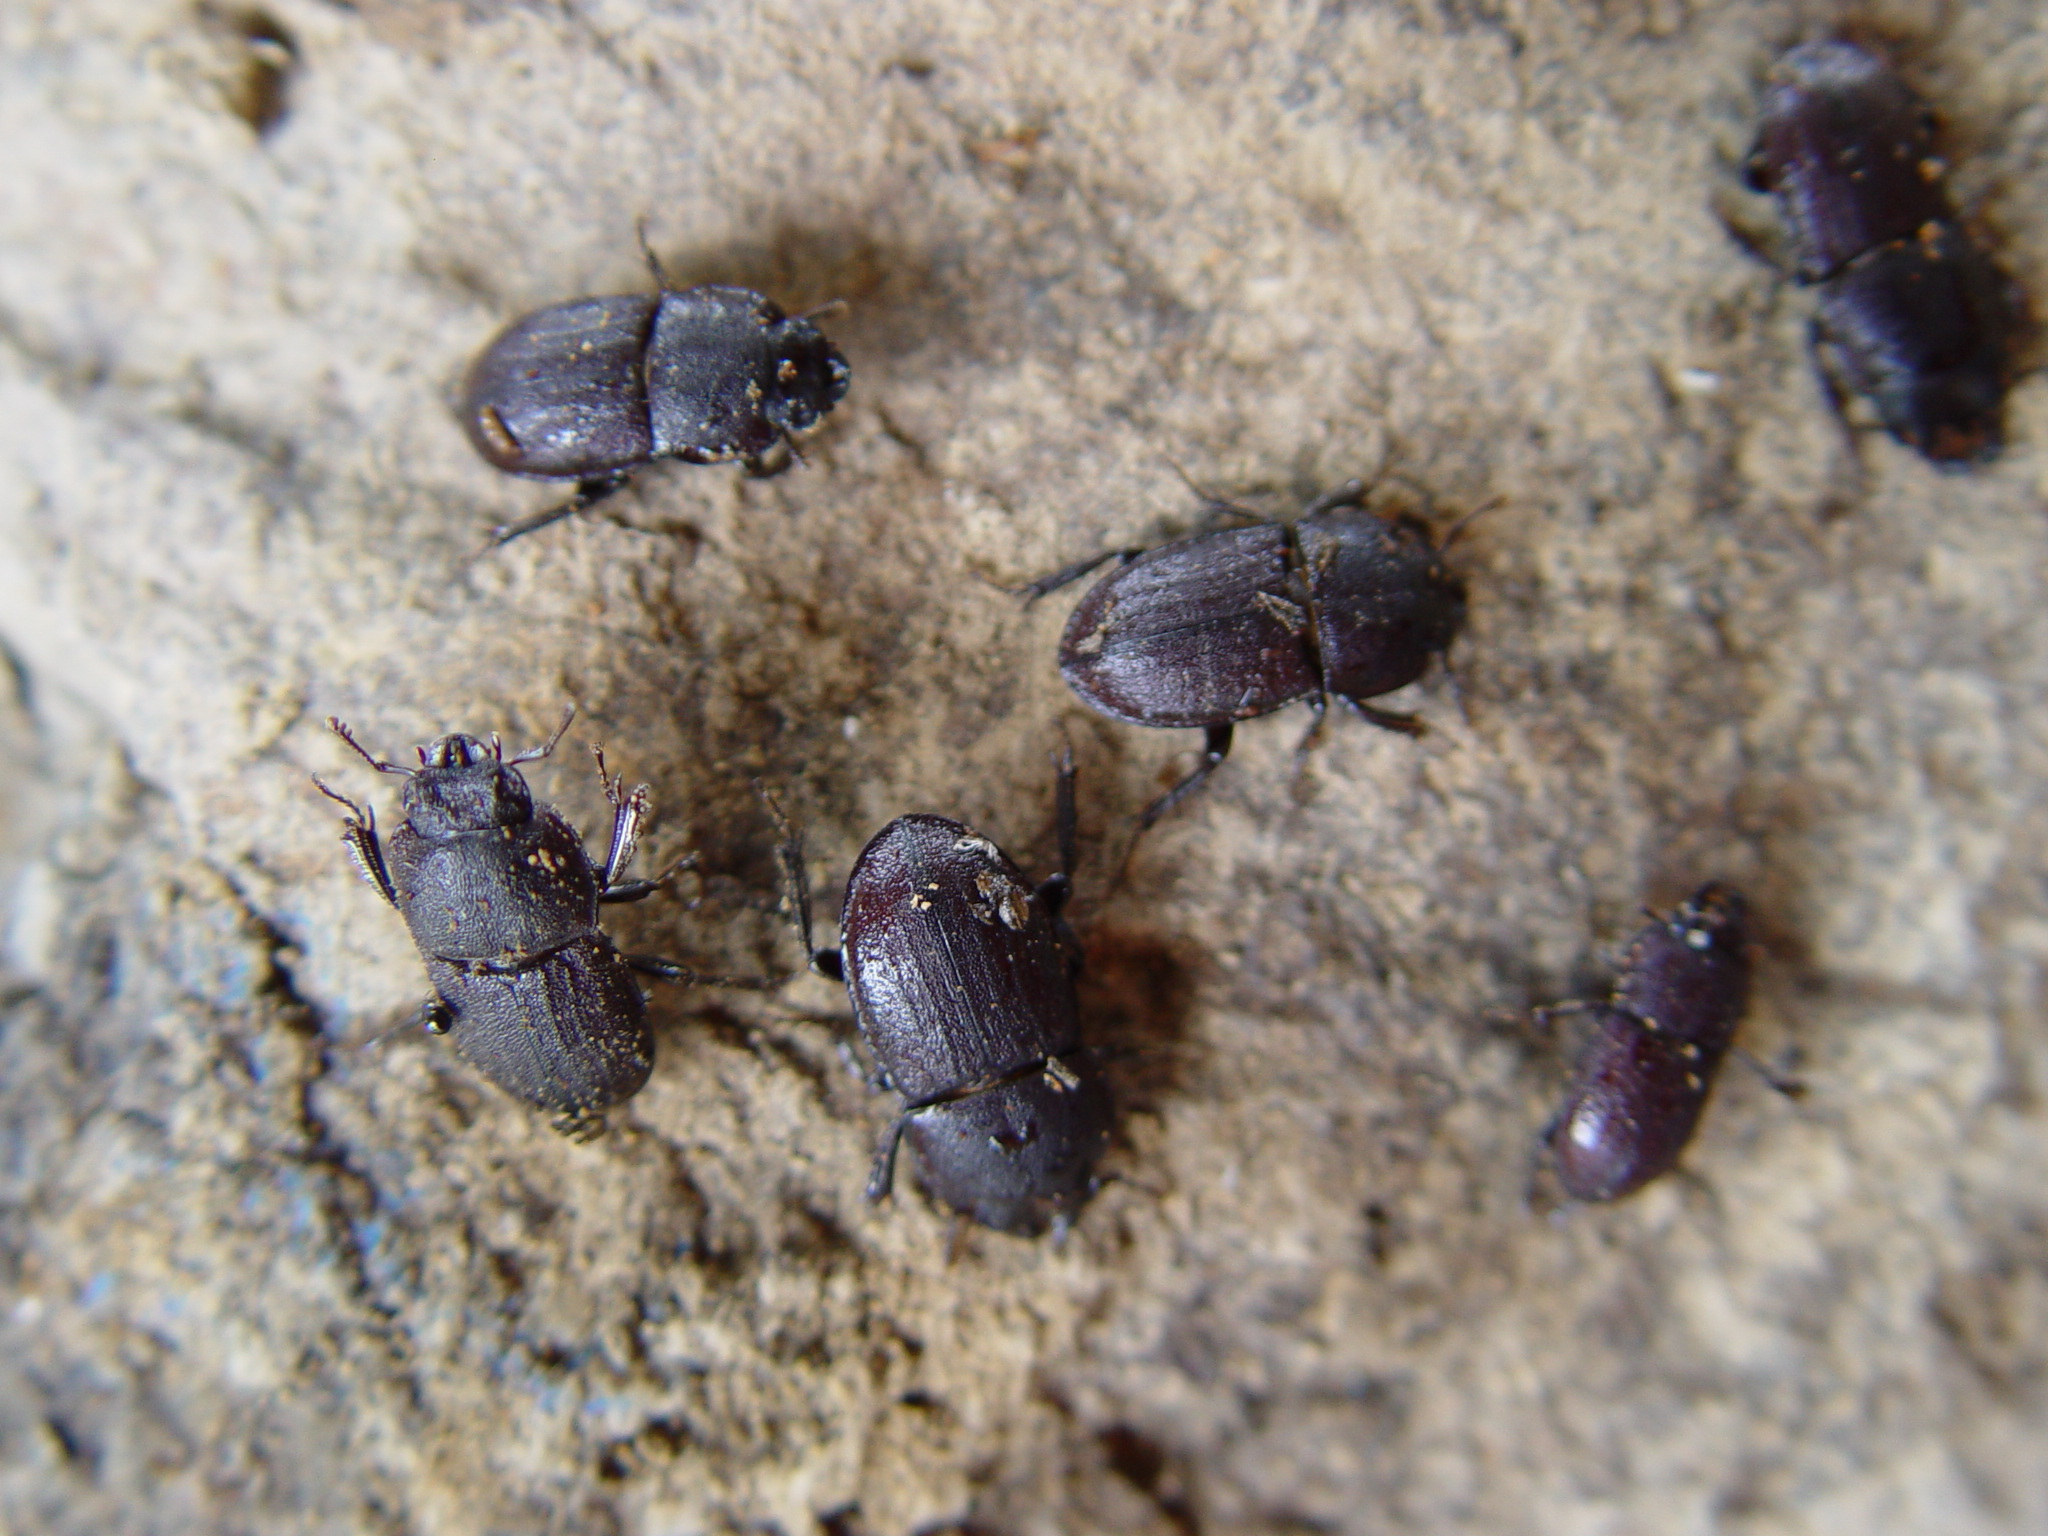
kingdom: Animalia
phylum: Arthropoda
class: Insecta
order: Coleoptera
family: Lucanidae
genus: Geodorcus
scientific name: Geodorcus novaezealandiae
